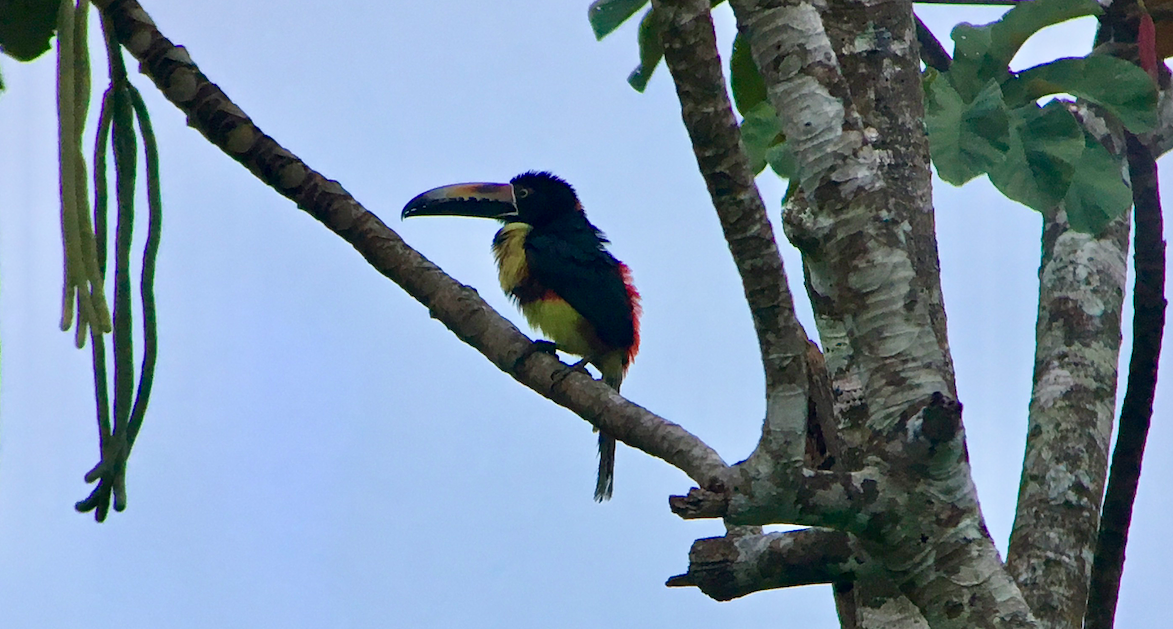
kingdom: Animalia
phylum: Chordata
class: Aves
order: Piciformes
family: Ramphastidae
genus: Pteroglossus
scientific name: Pteroglossus torquatus
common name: Collared aracari
